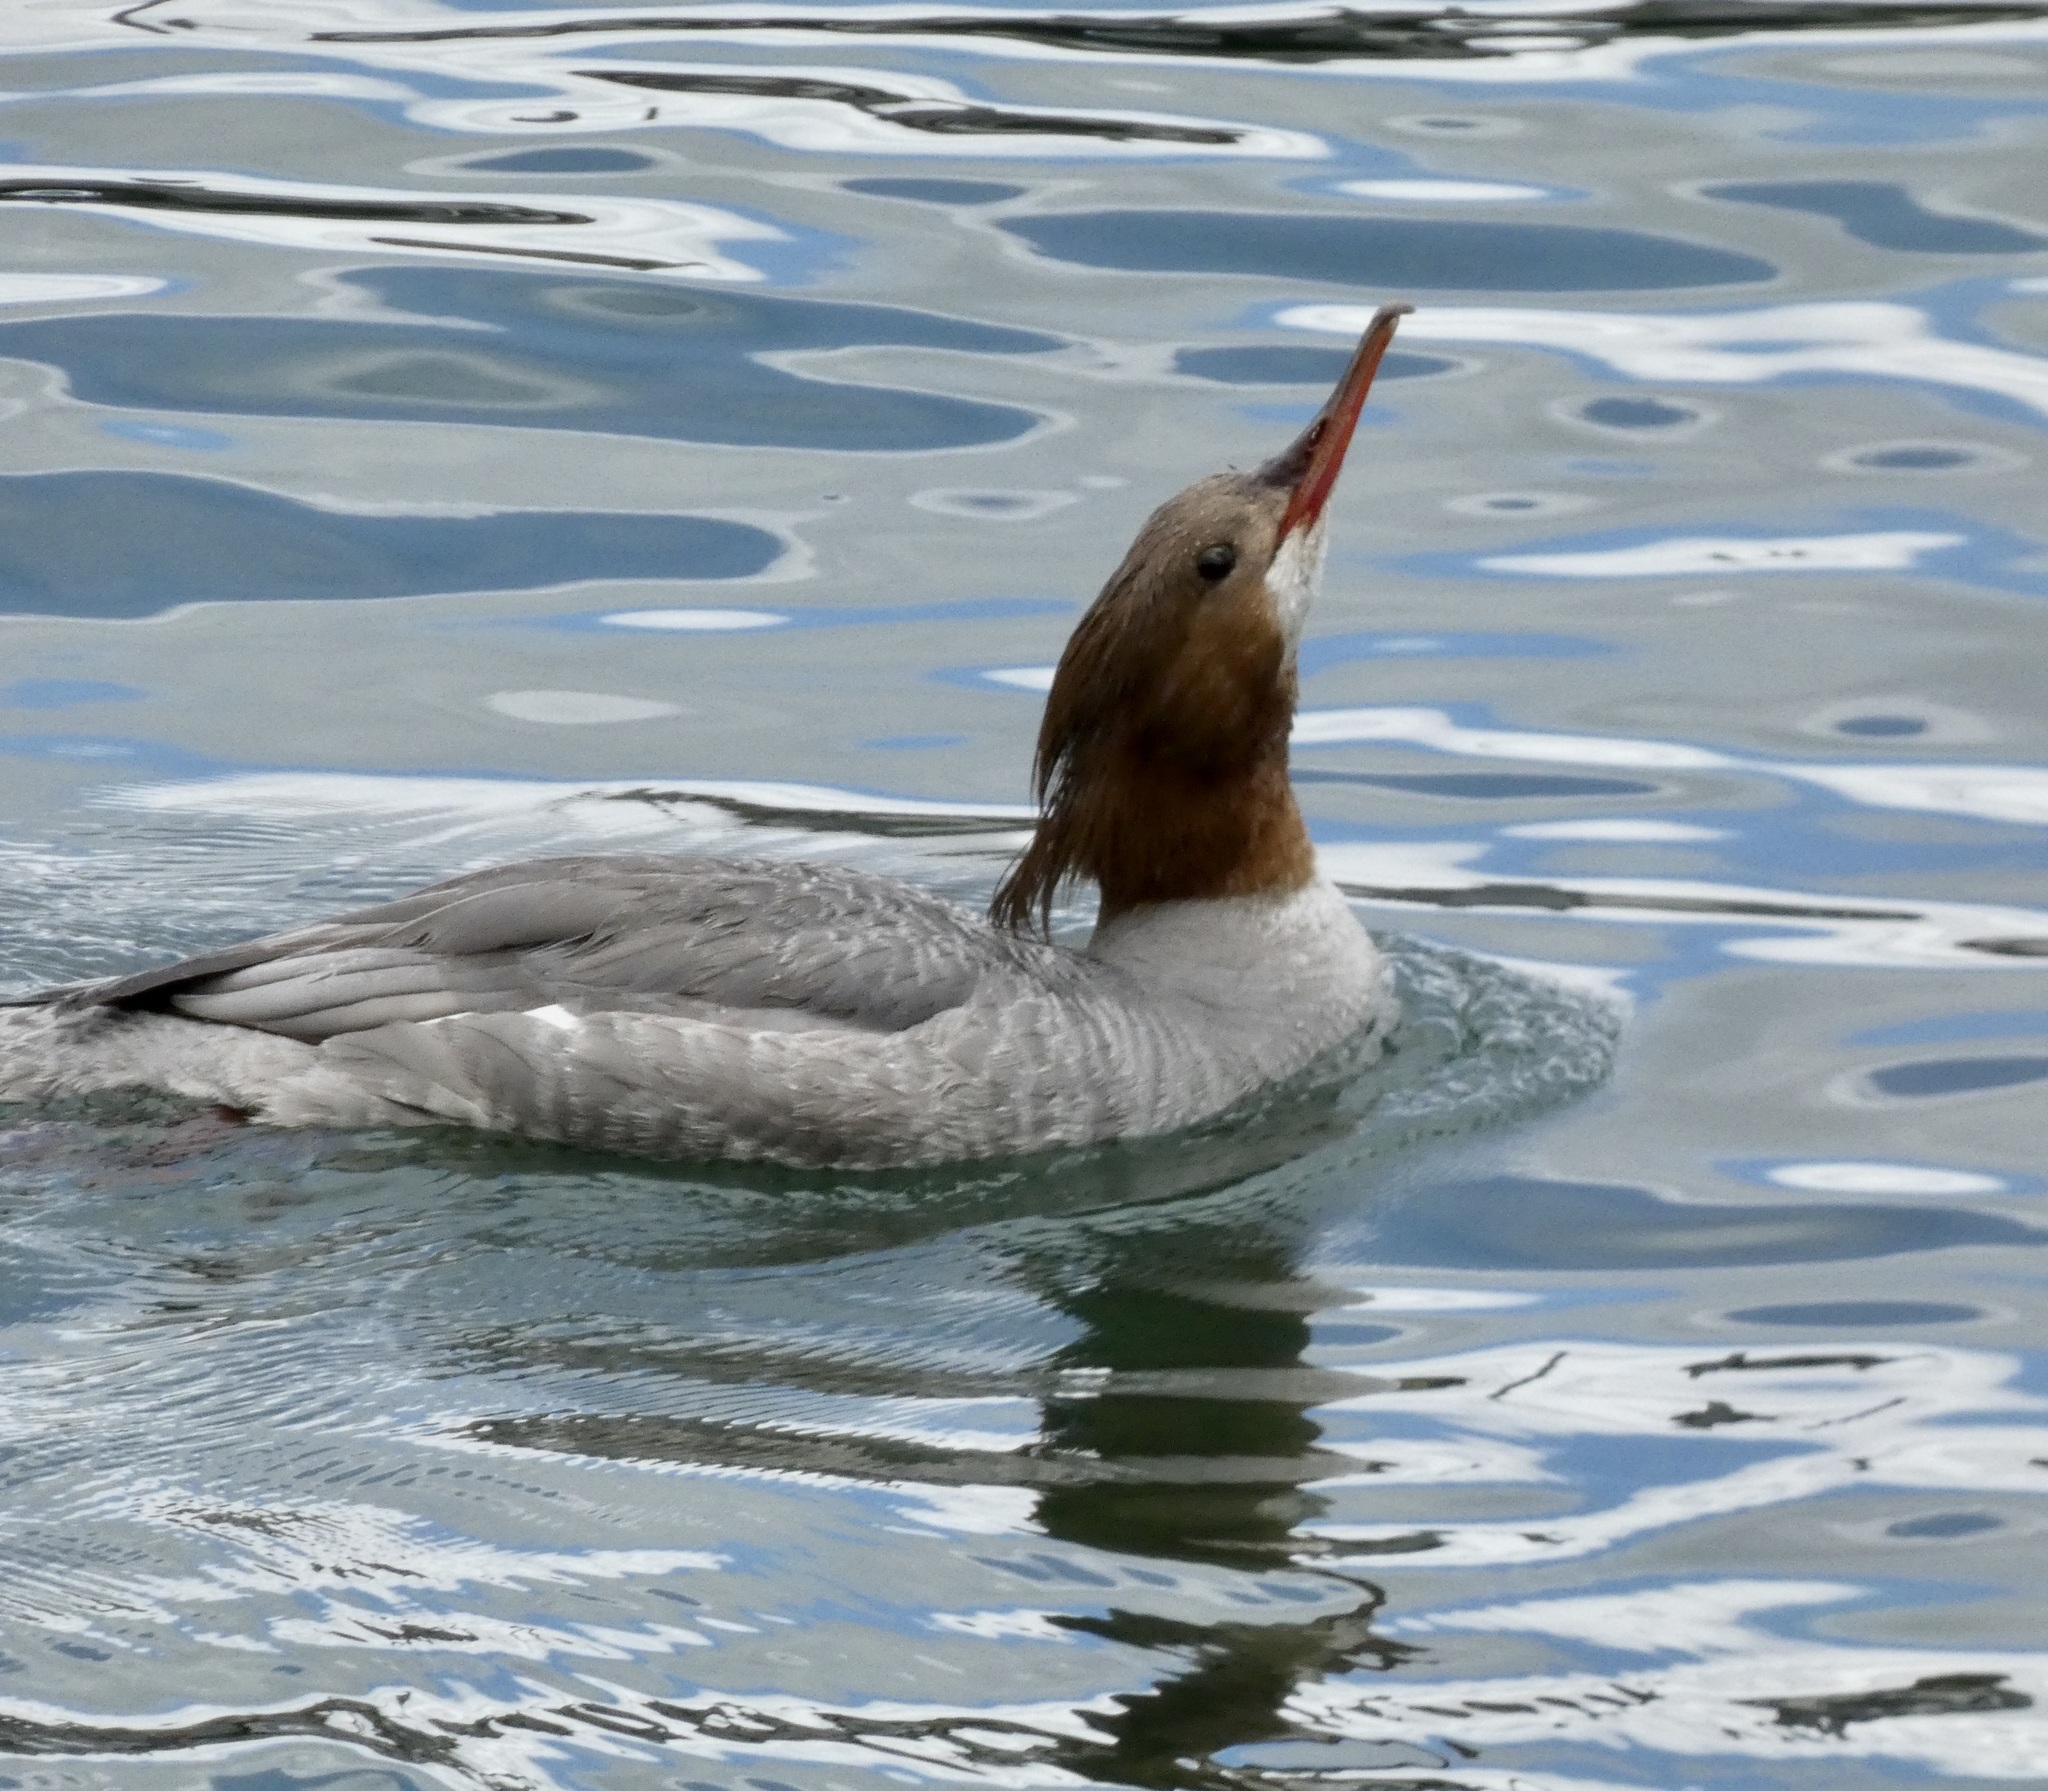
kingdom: Animalia
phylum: Chordata
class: Aves
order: Anseriformes
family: Anatidae
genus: Mergus
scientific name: Mergus merganser
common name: Common merganser
